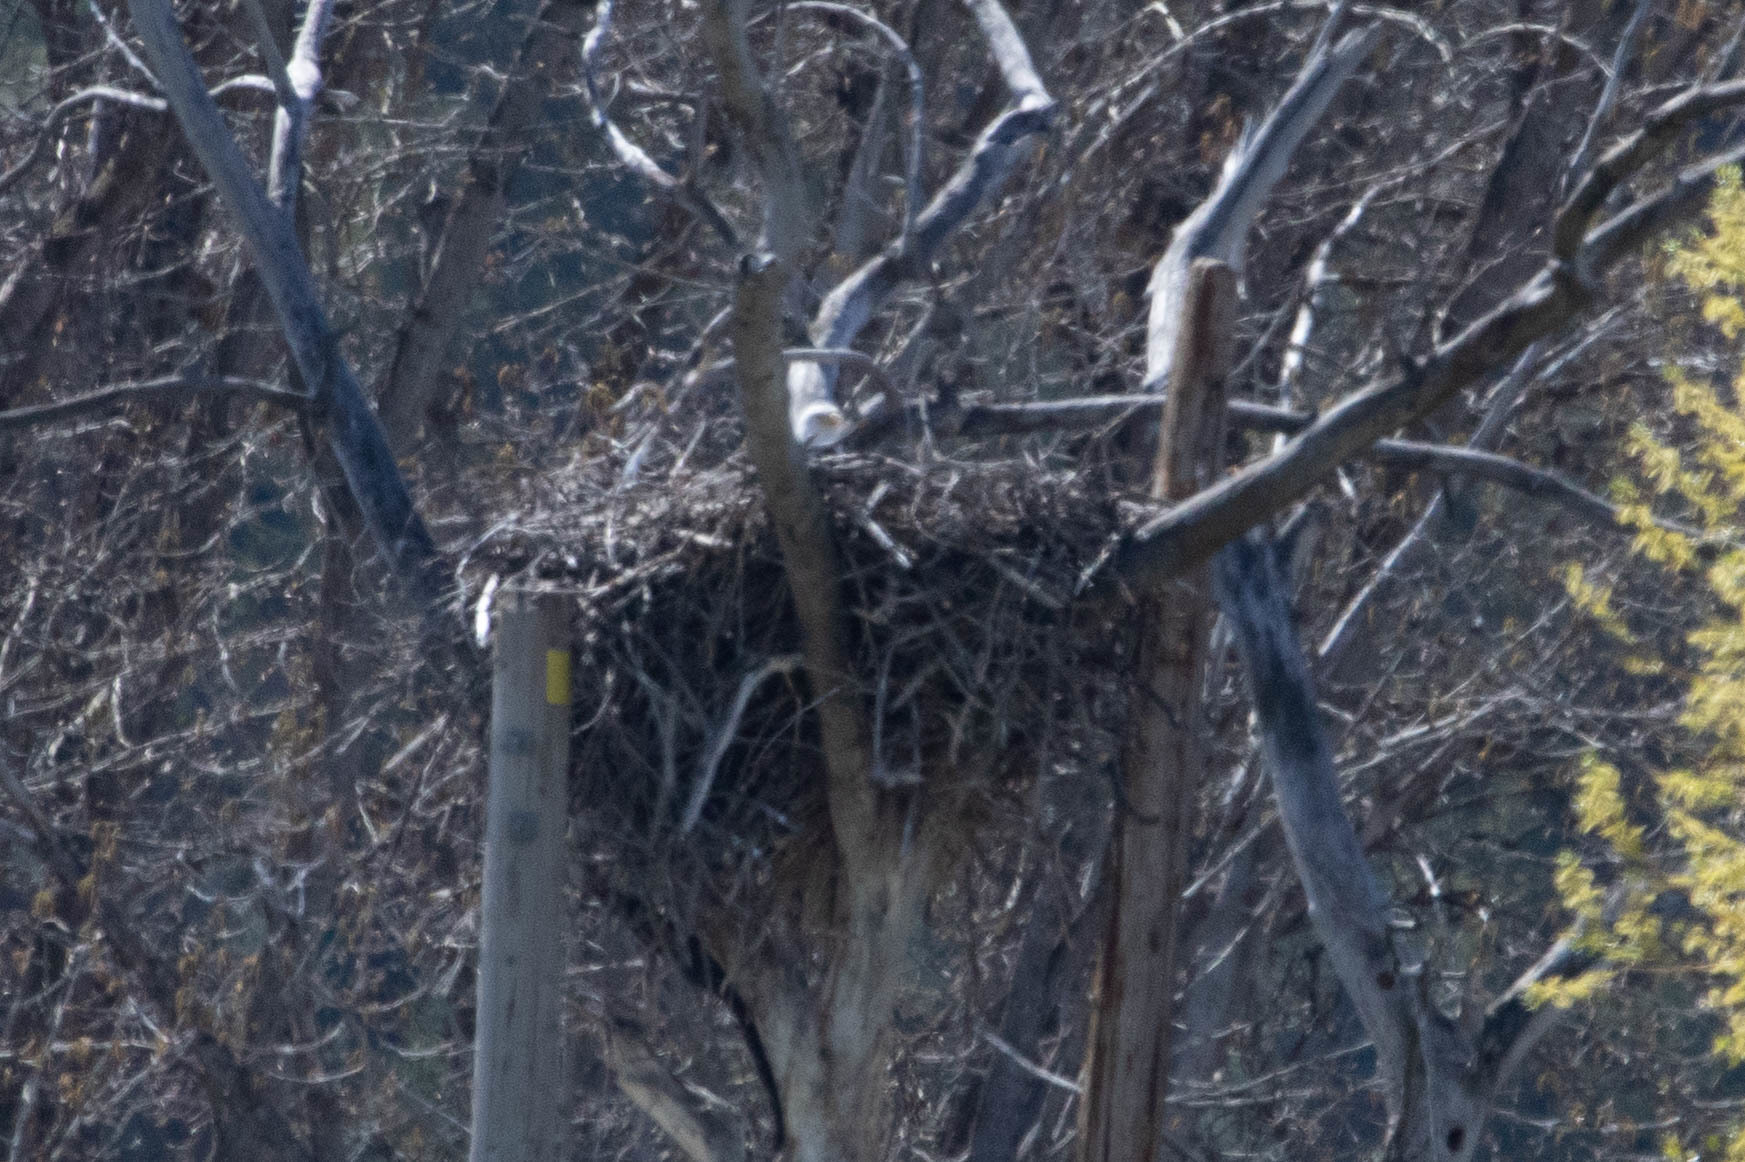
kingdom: Animalia
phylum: Chordata
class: Aves
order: Accipitriformes
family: Accipitridae
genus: Haliaeetus
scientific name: Haliaeetus leucocephalus
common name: Bald eagle
